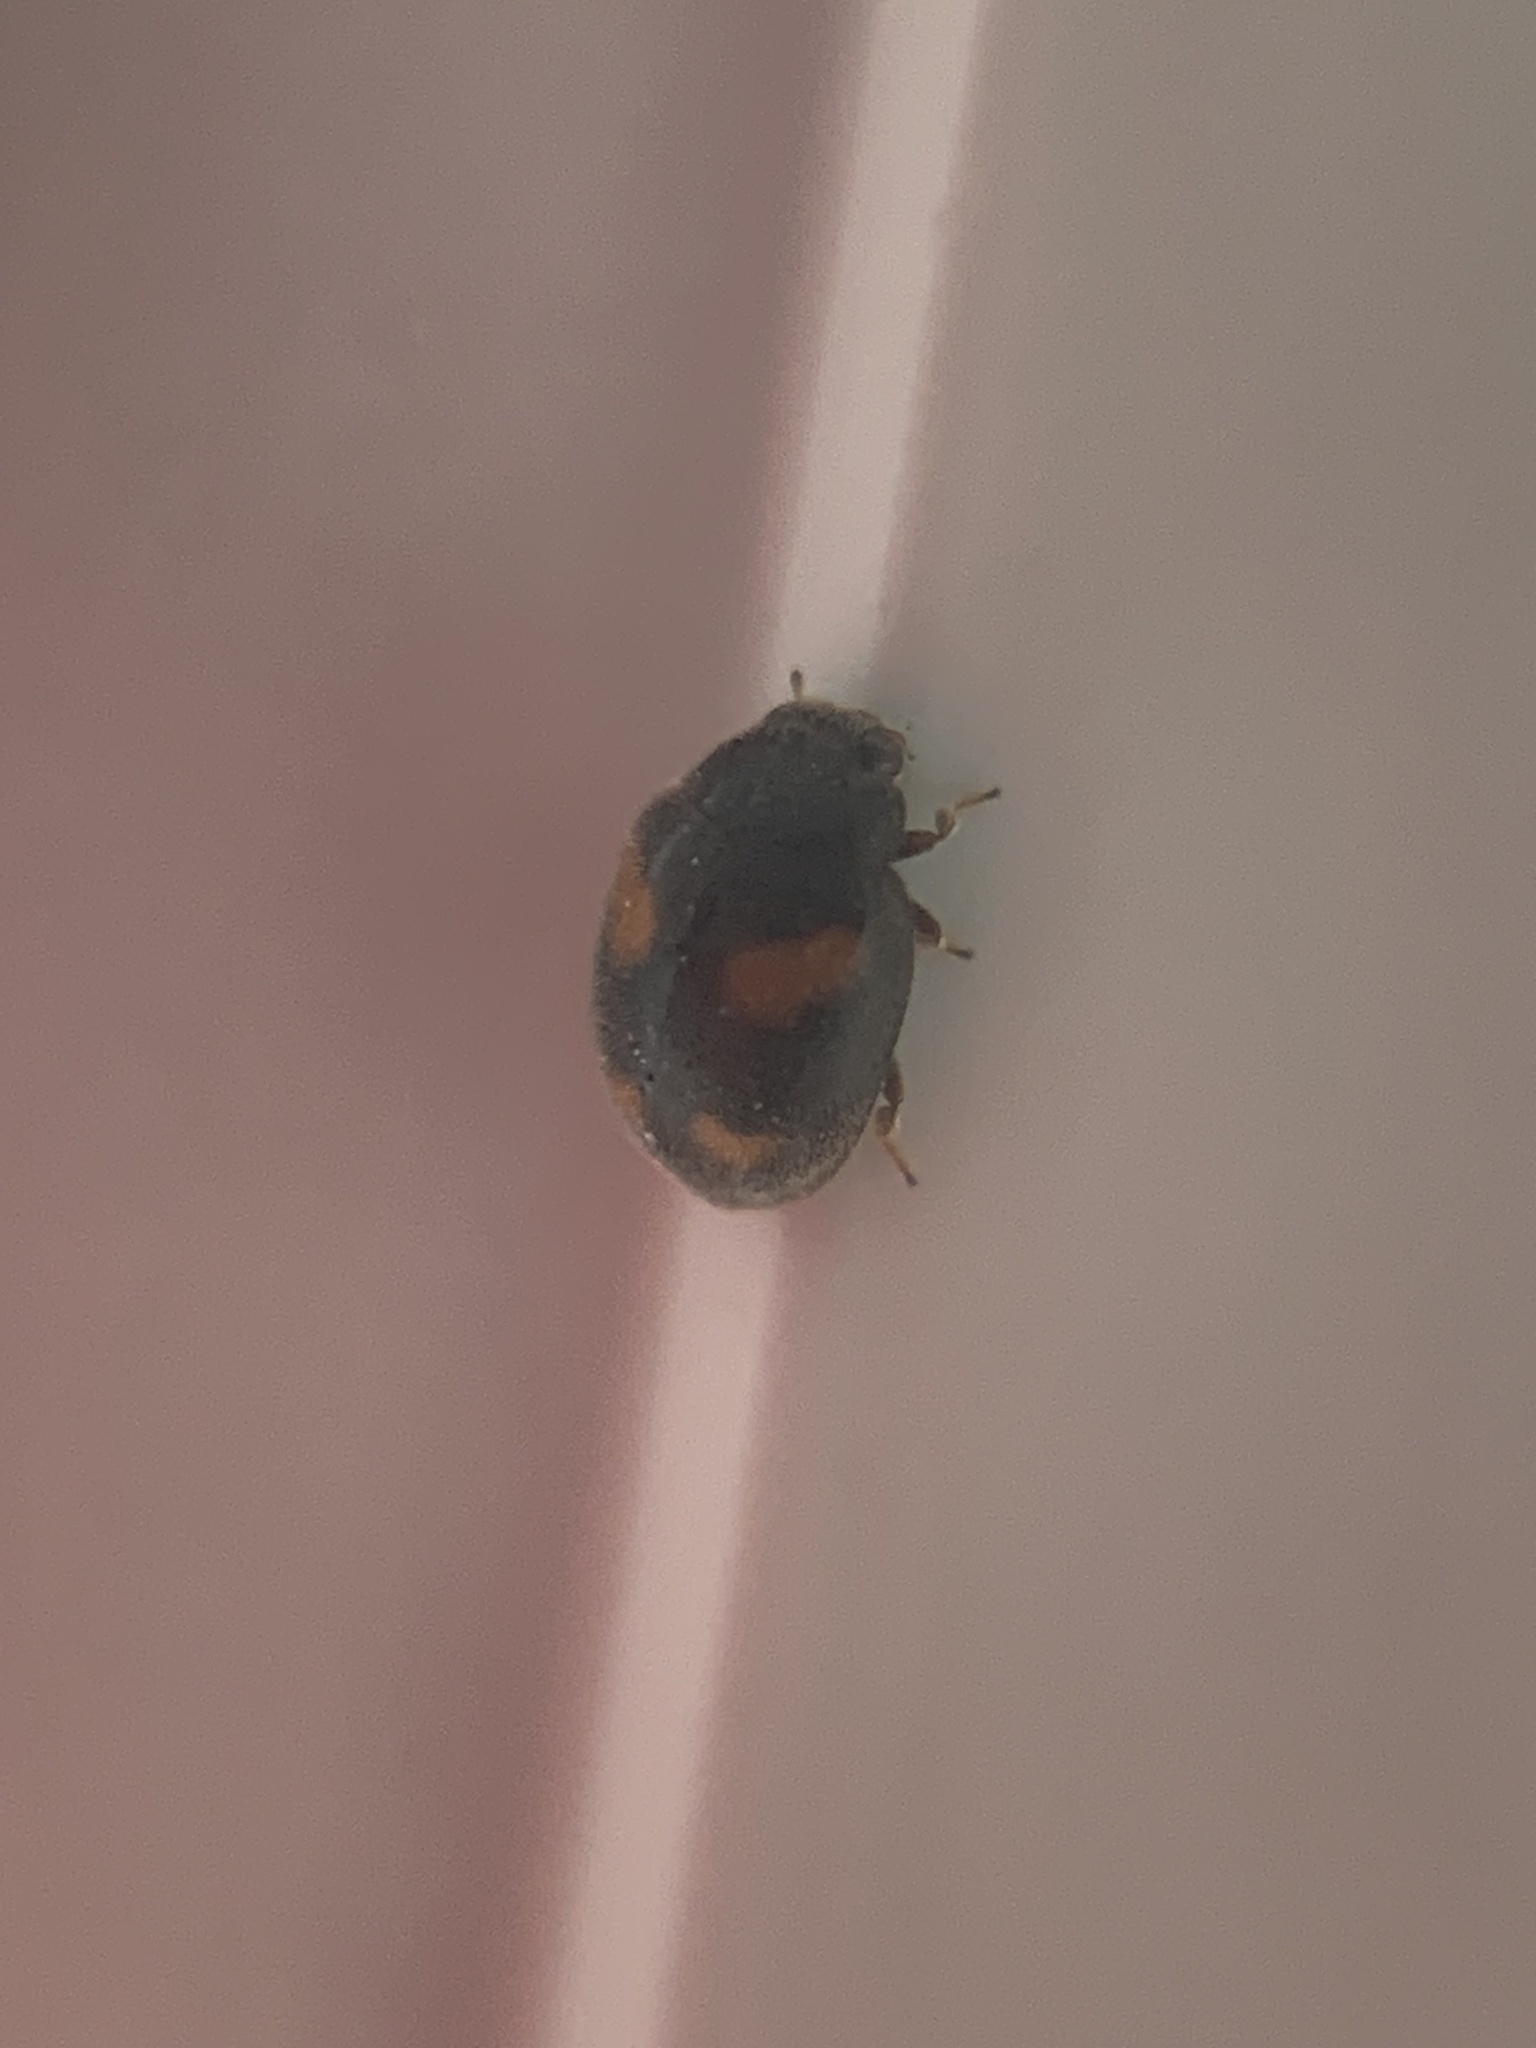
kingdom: Animalia
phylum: Arthropoda
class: Insecta
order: Coleoptera
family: Coccinellidae
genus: Nephus
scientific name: Nephus quadrimaculatus
